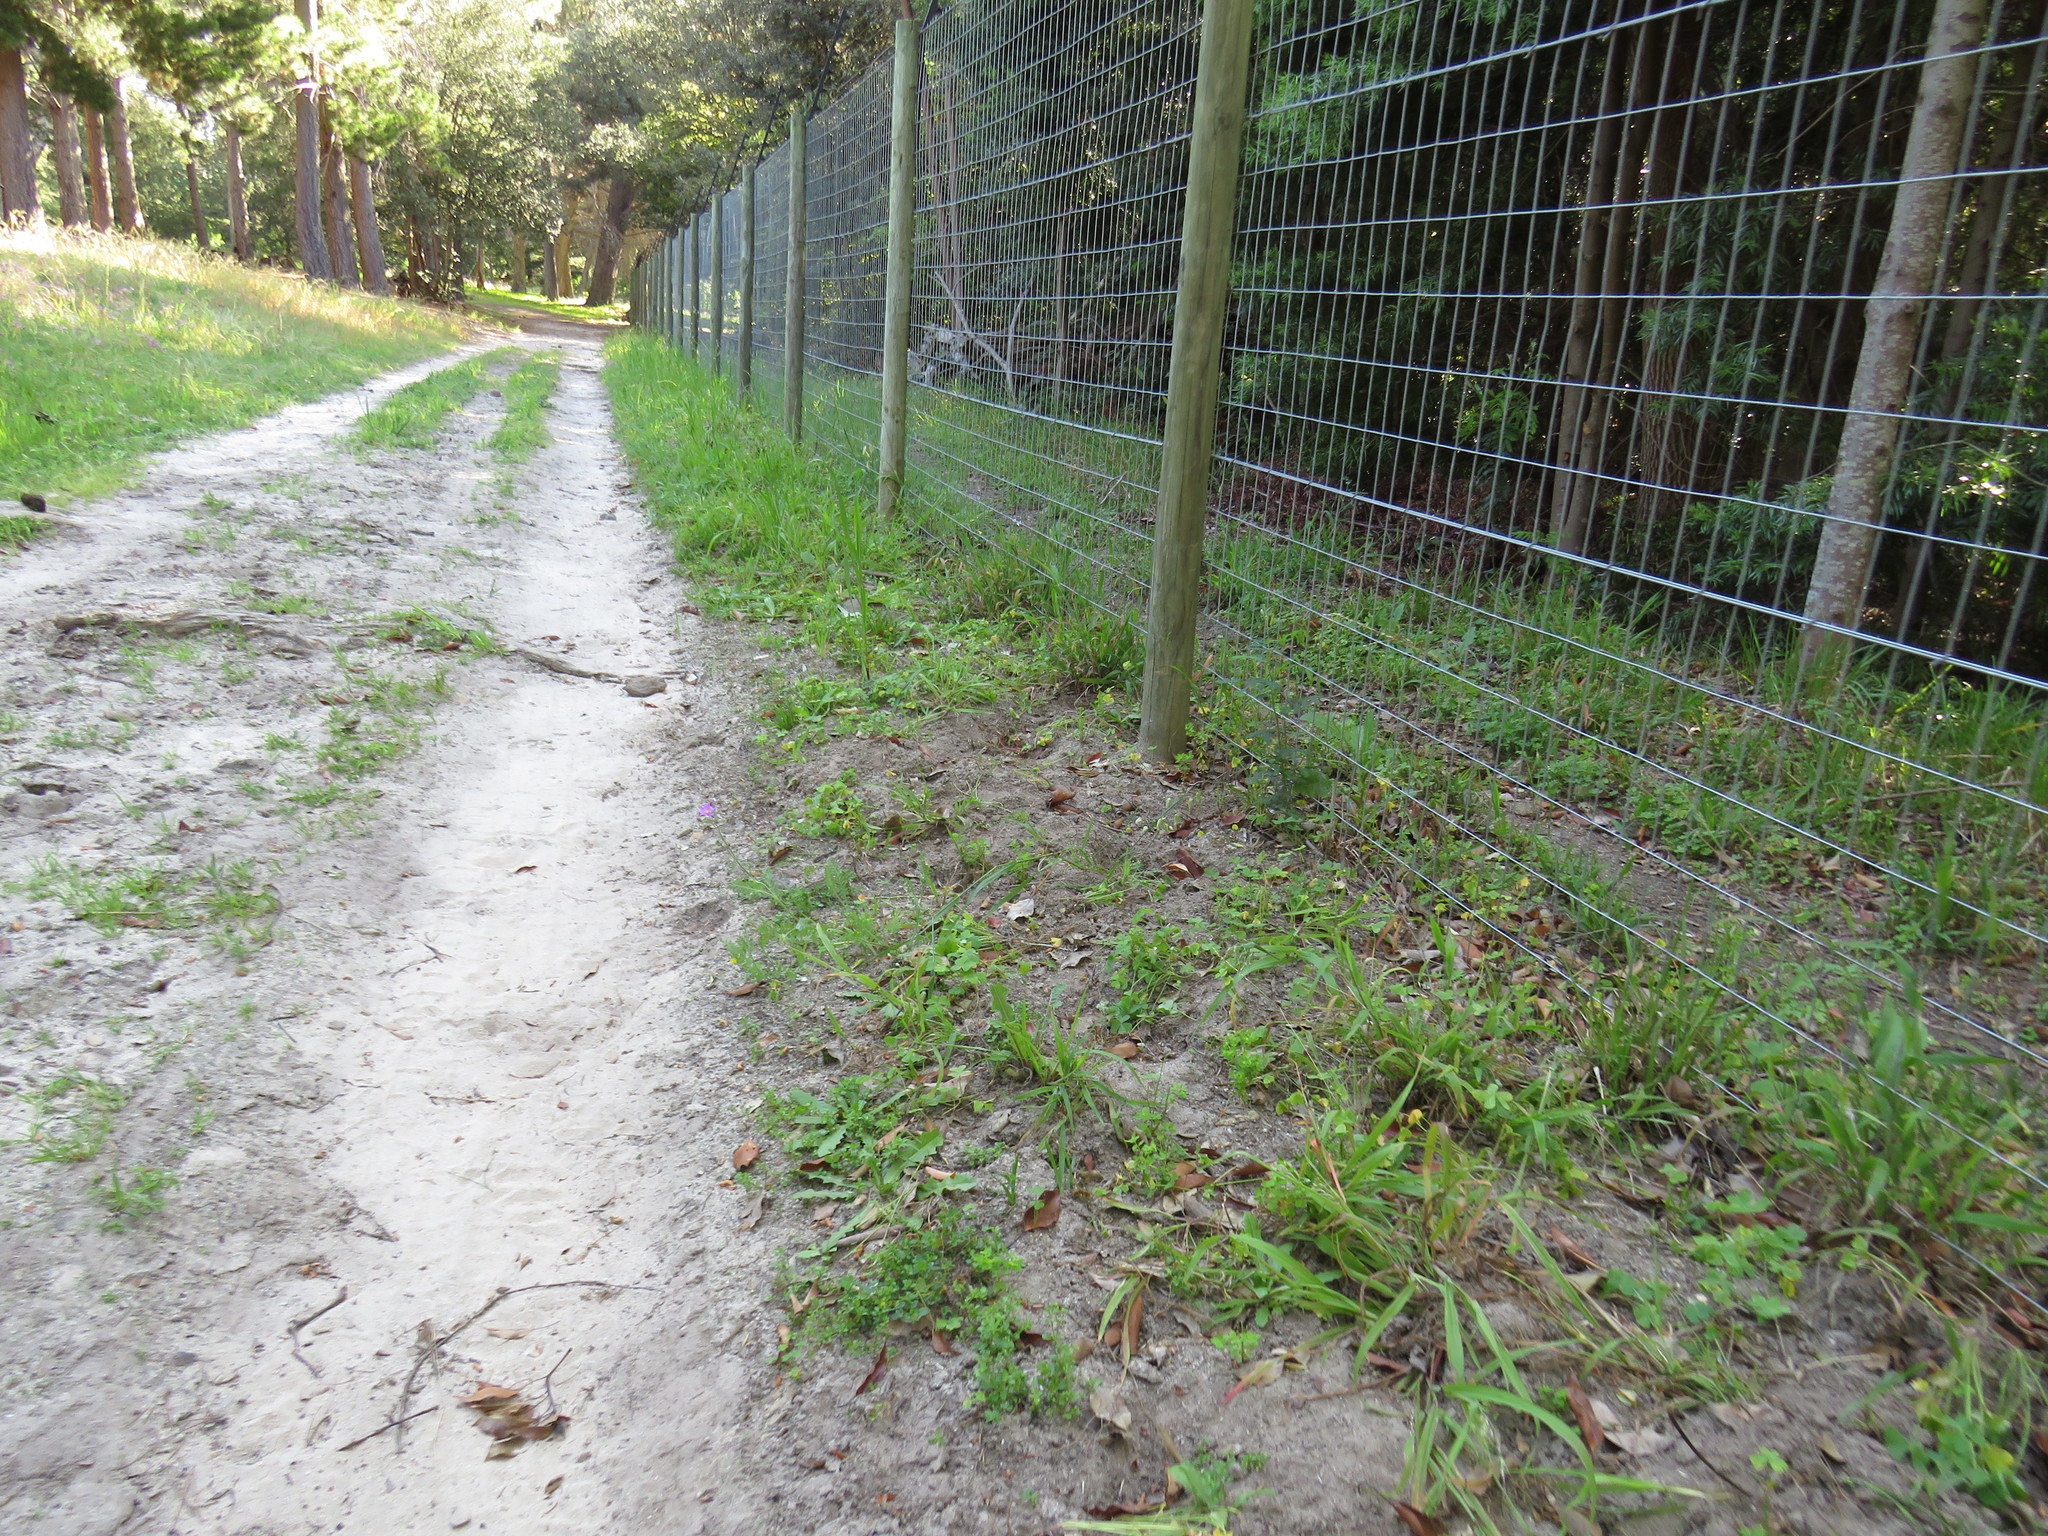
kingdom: Plantae
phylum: Tracheophyta
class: Magnoliopsida
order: Oxalidales
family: Oxalidaceae
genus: Oxalis
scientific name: Oxalis pes-caprae
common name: Bermuda-buttercup
